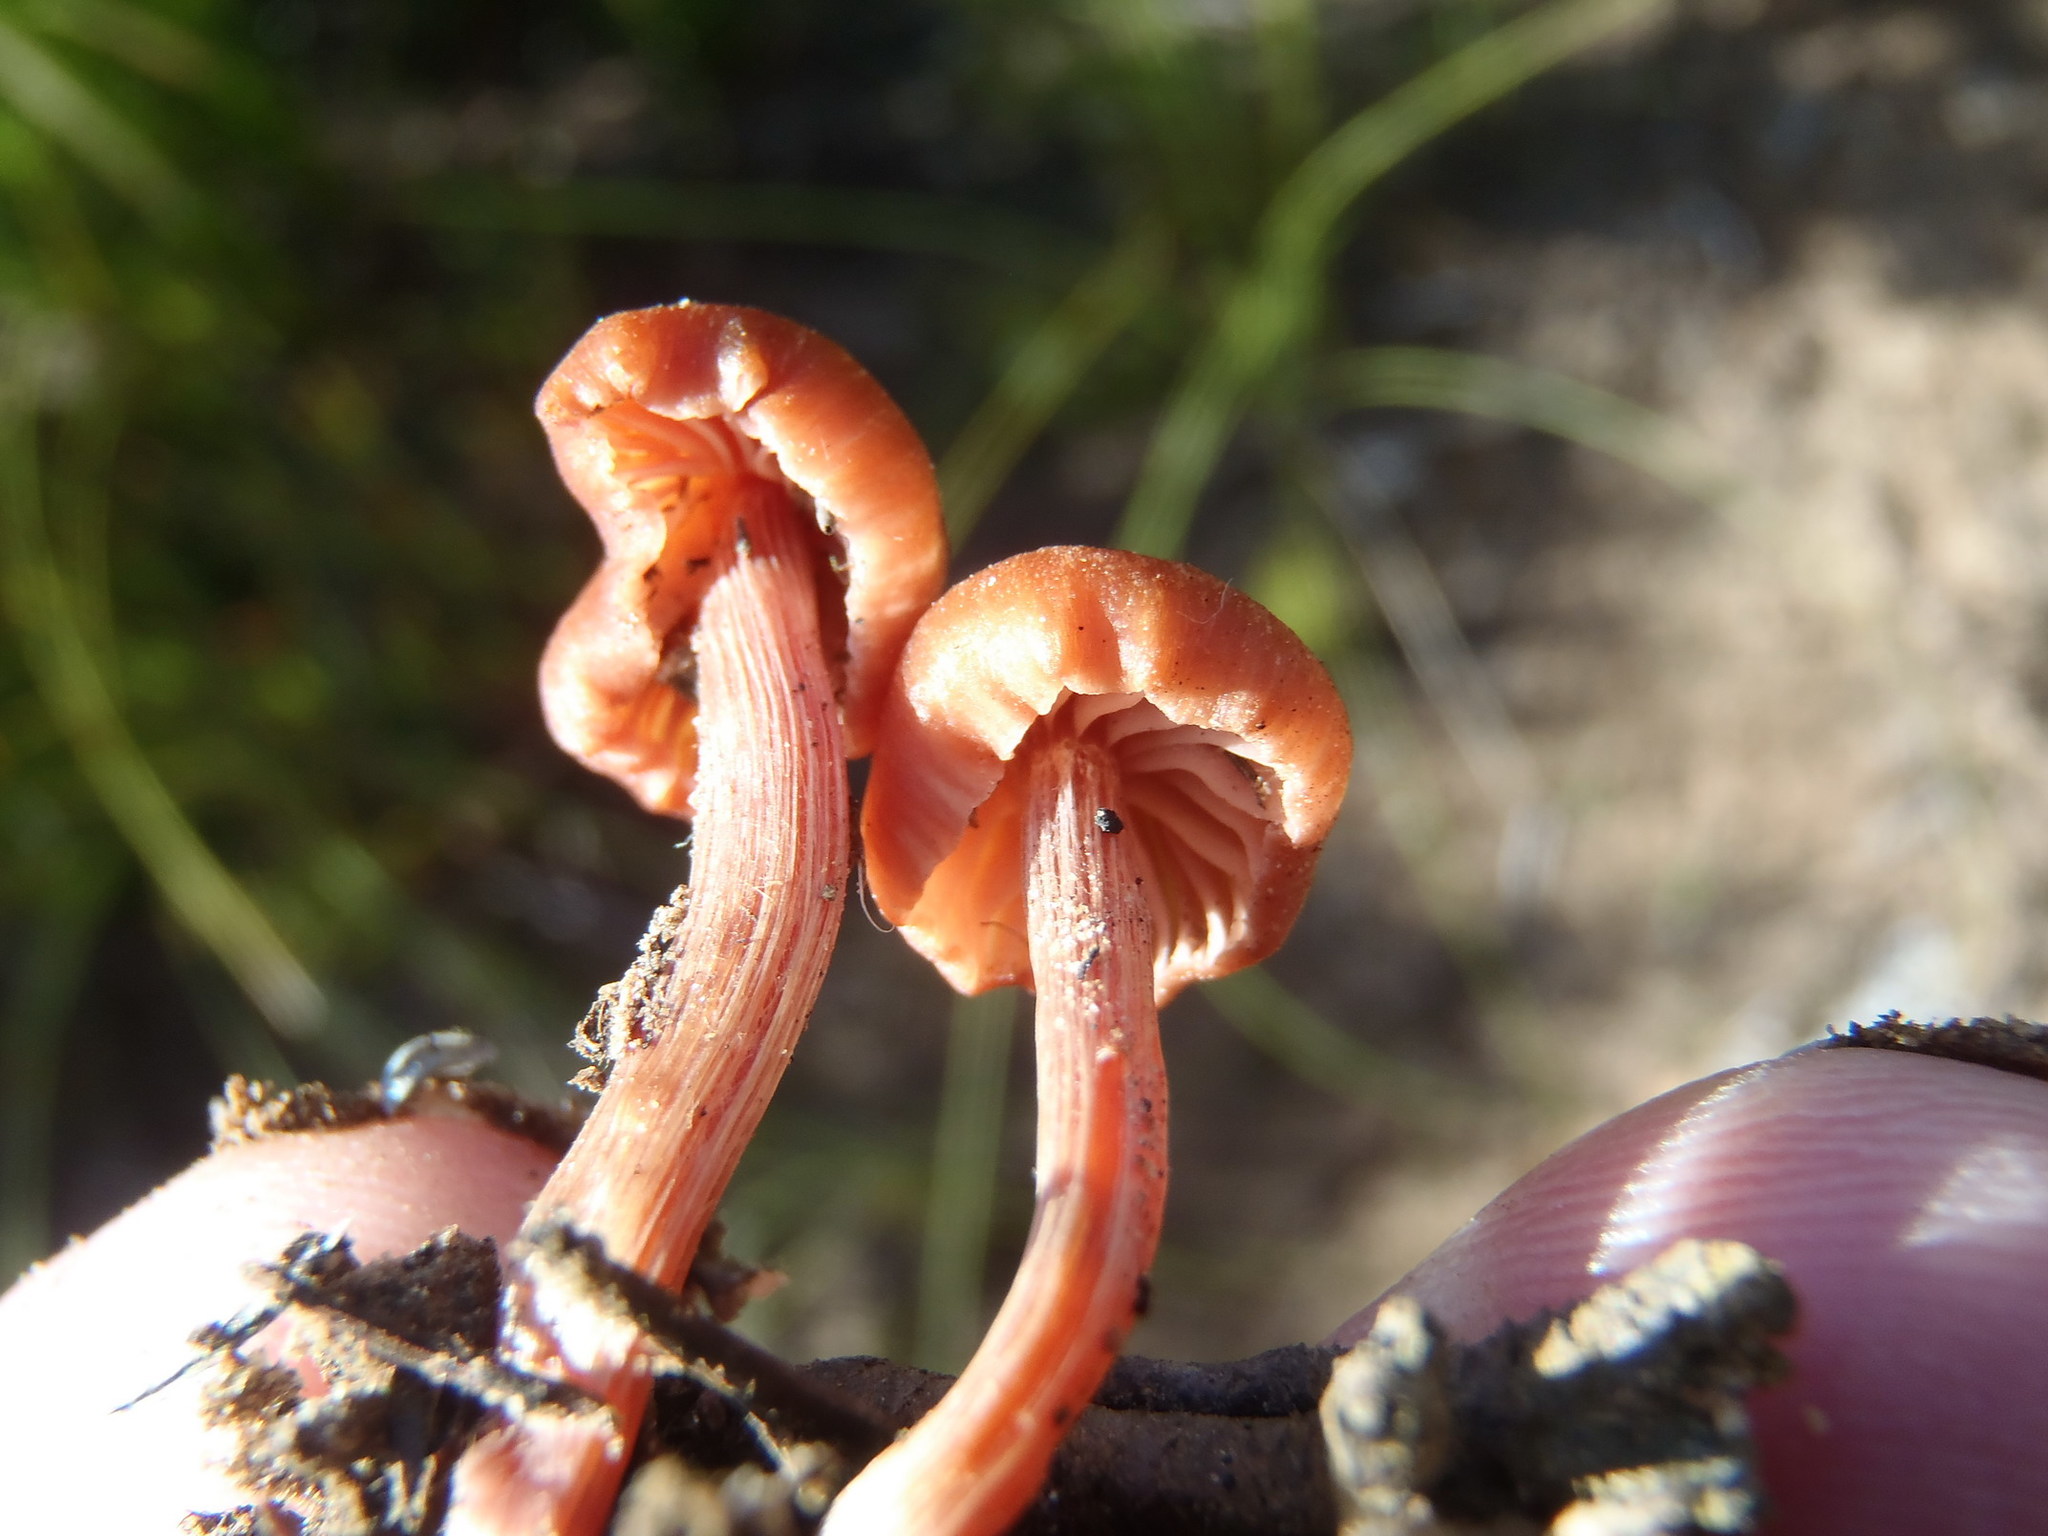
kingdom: Fungi
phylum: Basidiomycota
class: Agaricomycetes
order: Agaricales
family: Hydnangiaceae
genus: Laccaria
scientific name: Laccaria laccata
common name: Deceiver
